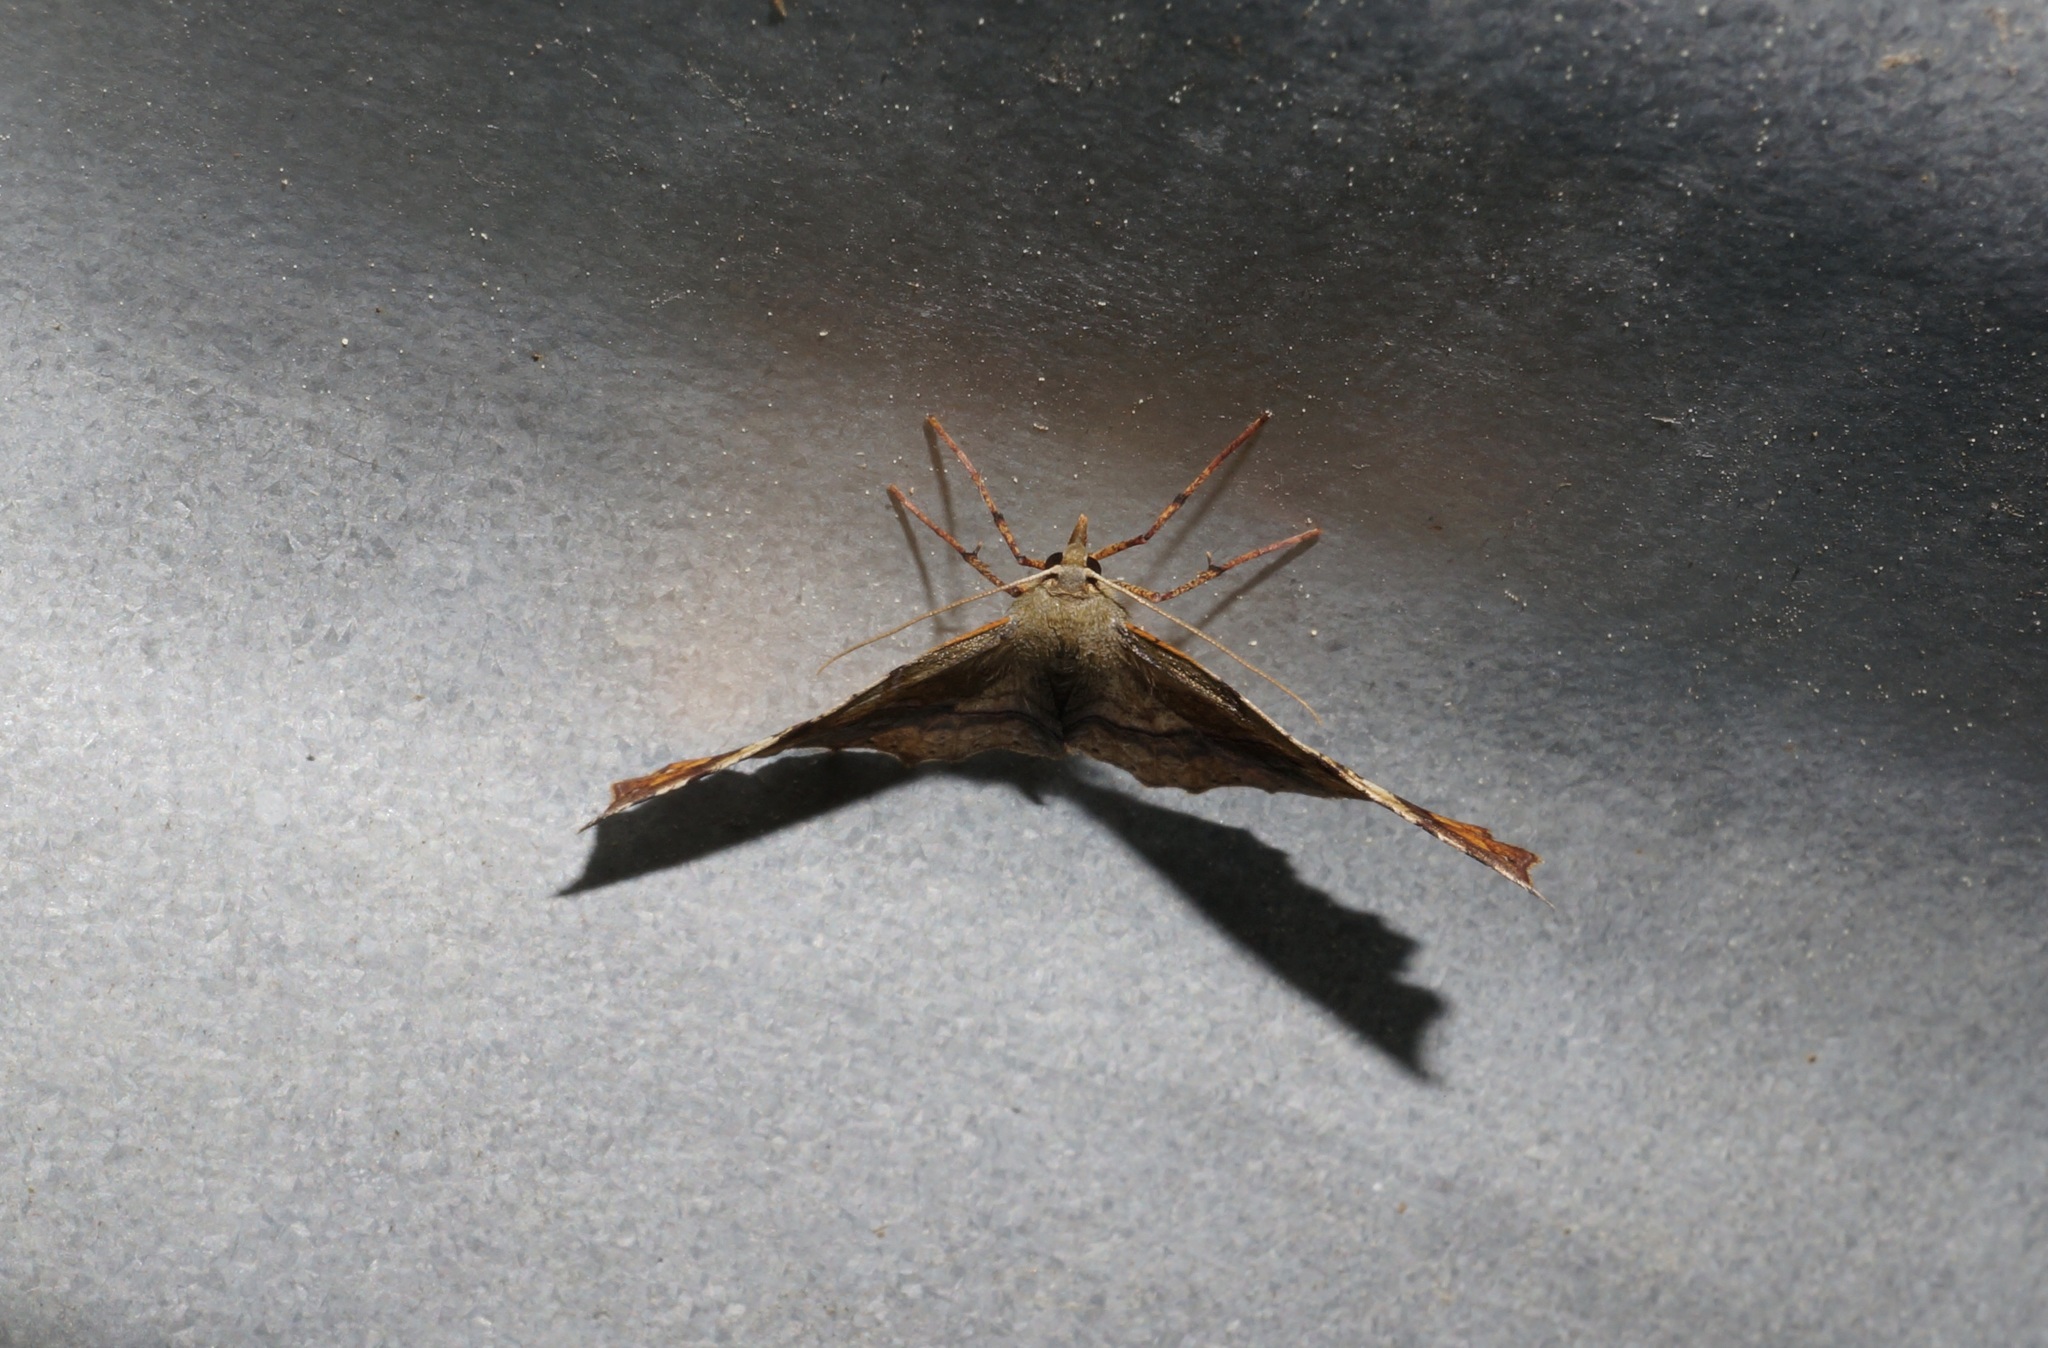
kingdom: Animalia
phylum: Arthropoda
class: Insecta
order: Lepidoptera
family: Geometridae
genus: Ischalis
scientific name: Ischalis gallaria
